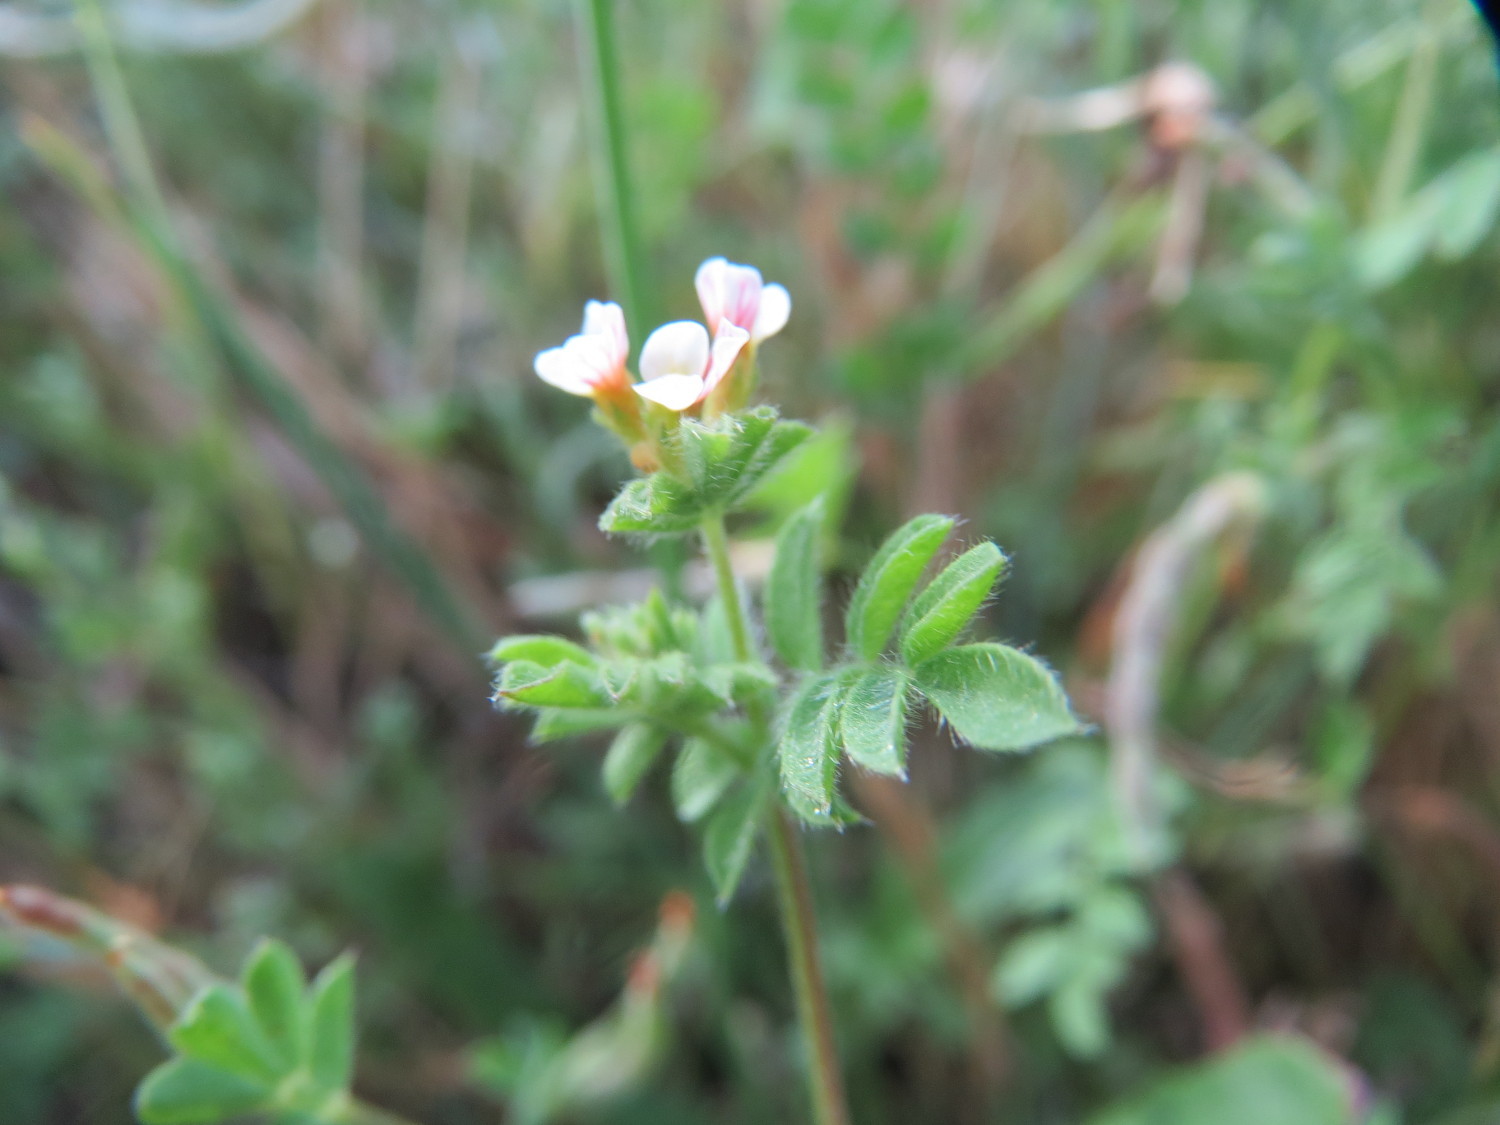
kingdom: Plantae
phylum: Tracheophyta
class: Magnoliopsida
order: Fabales
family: Fabaceae
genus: Ornithopus
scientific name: Ornithopus perpusillus
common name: Bird's-foot
